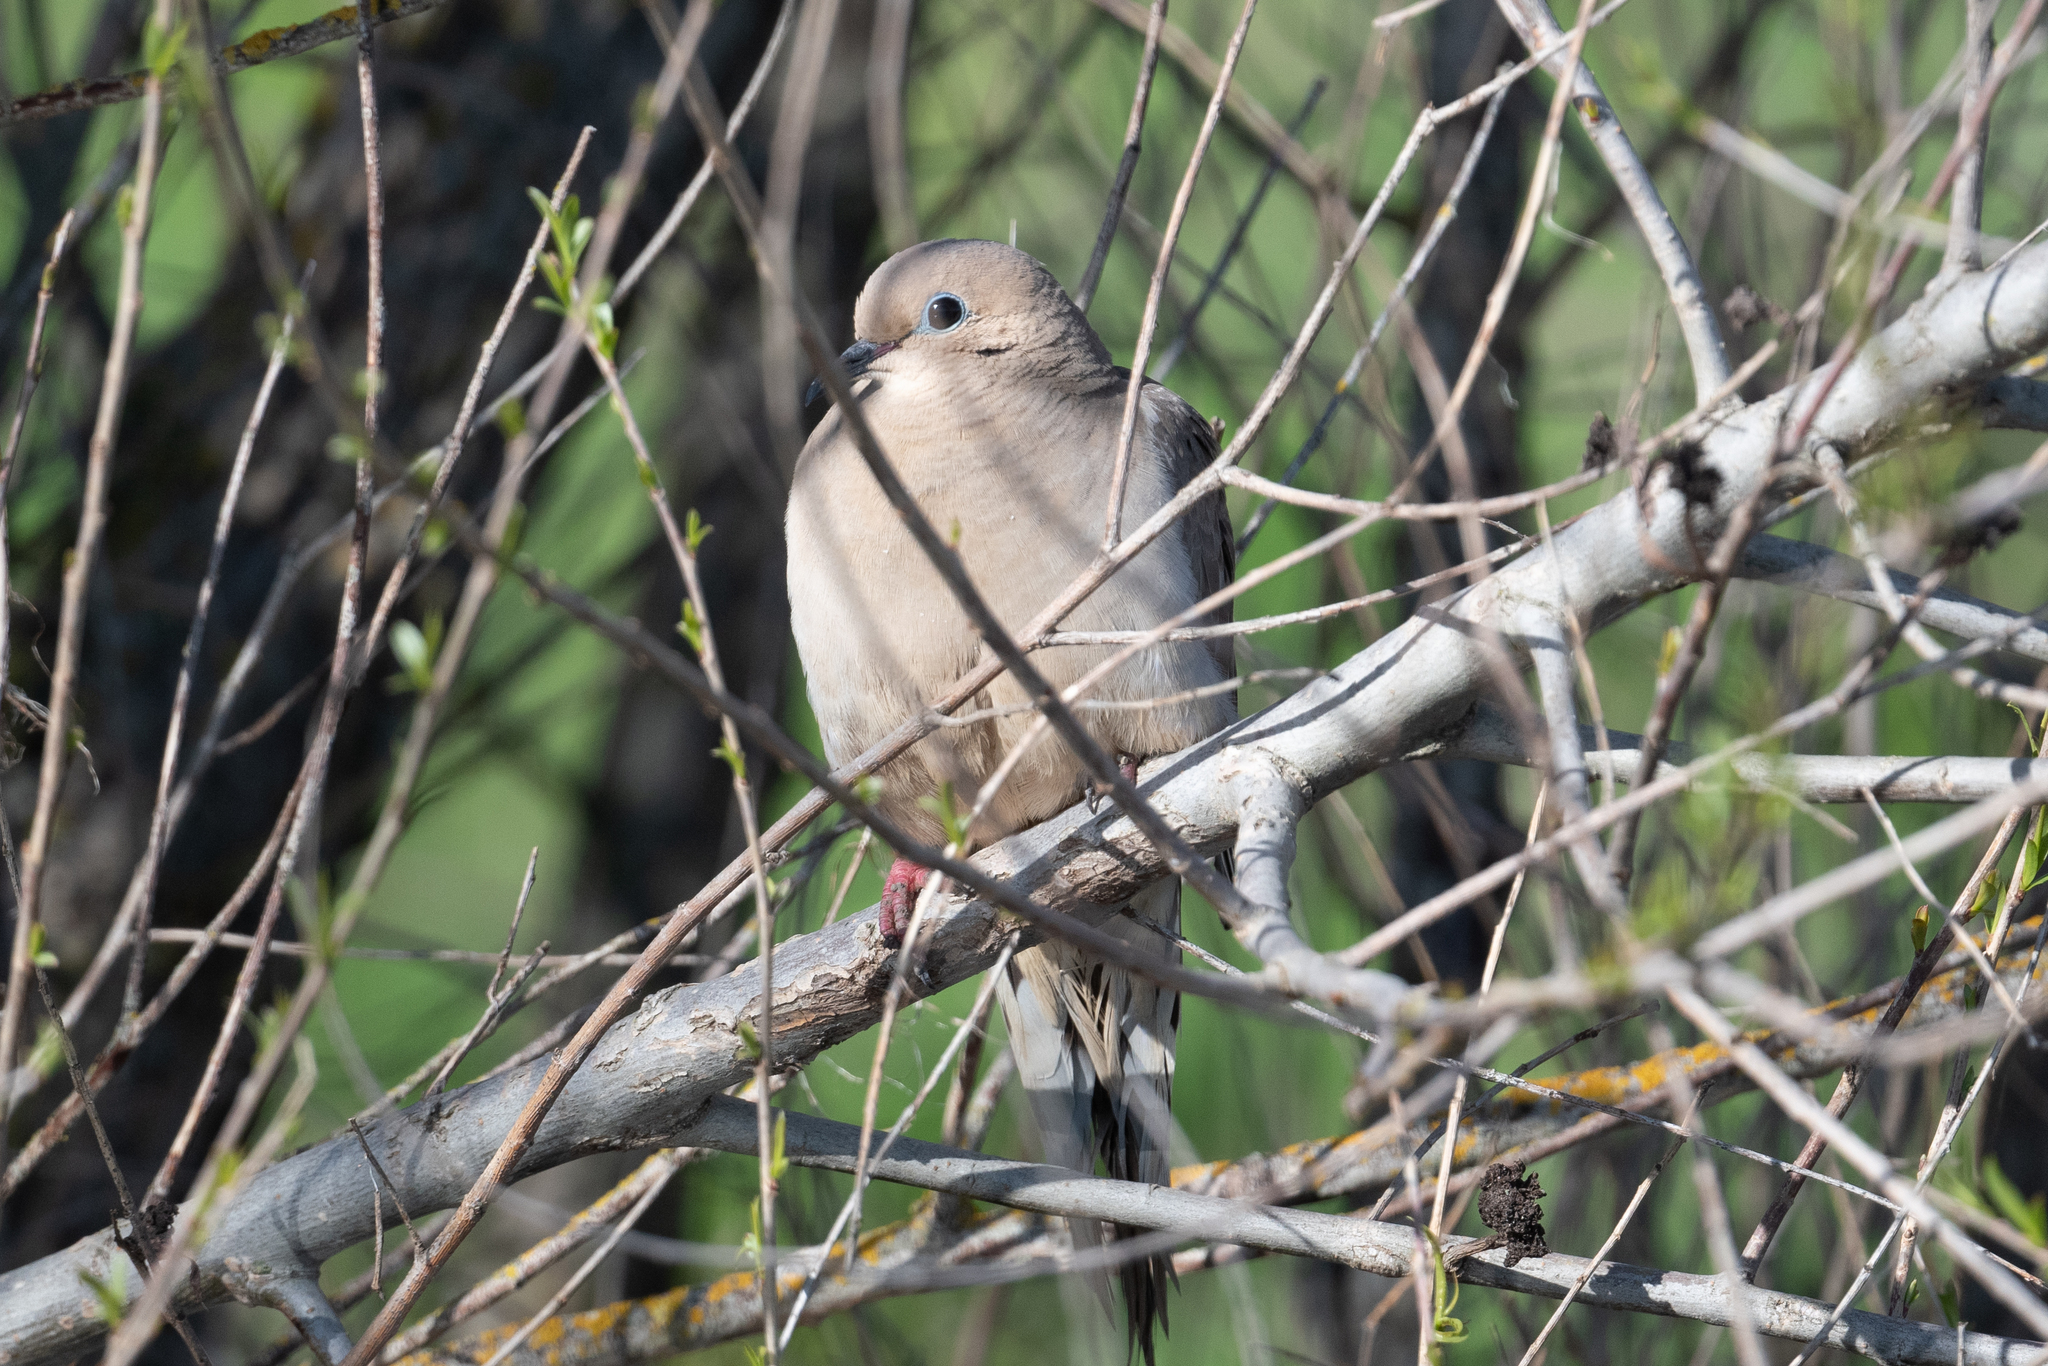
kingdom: Animalia
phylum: Chordata
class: Aves
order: Columbiformes
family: Columbidae
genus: Zenaida
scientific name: Zenaida macroura
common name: Mourning dove
